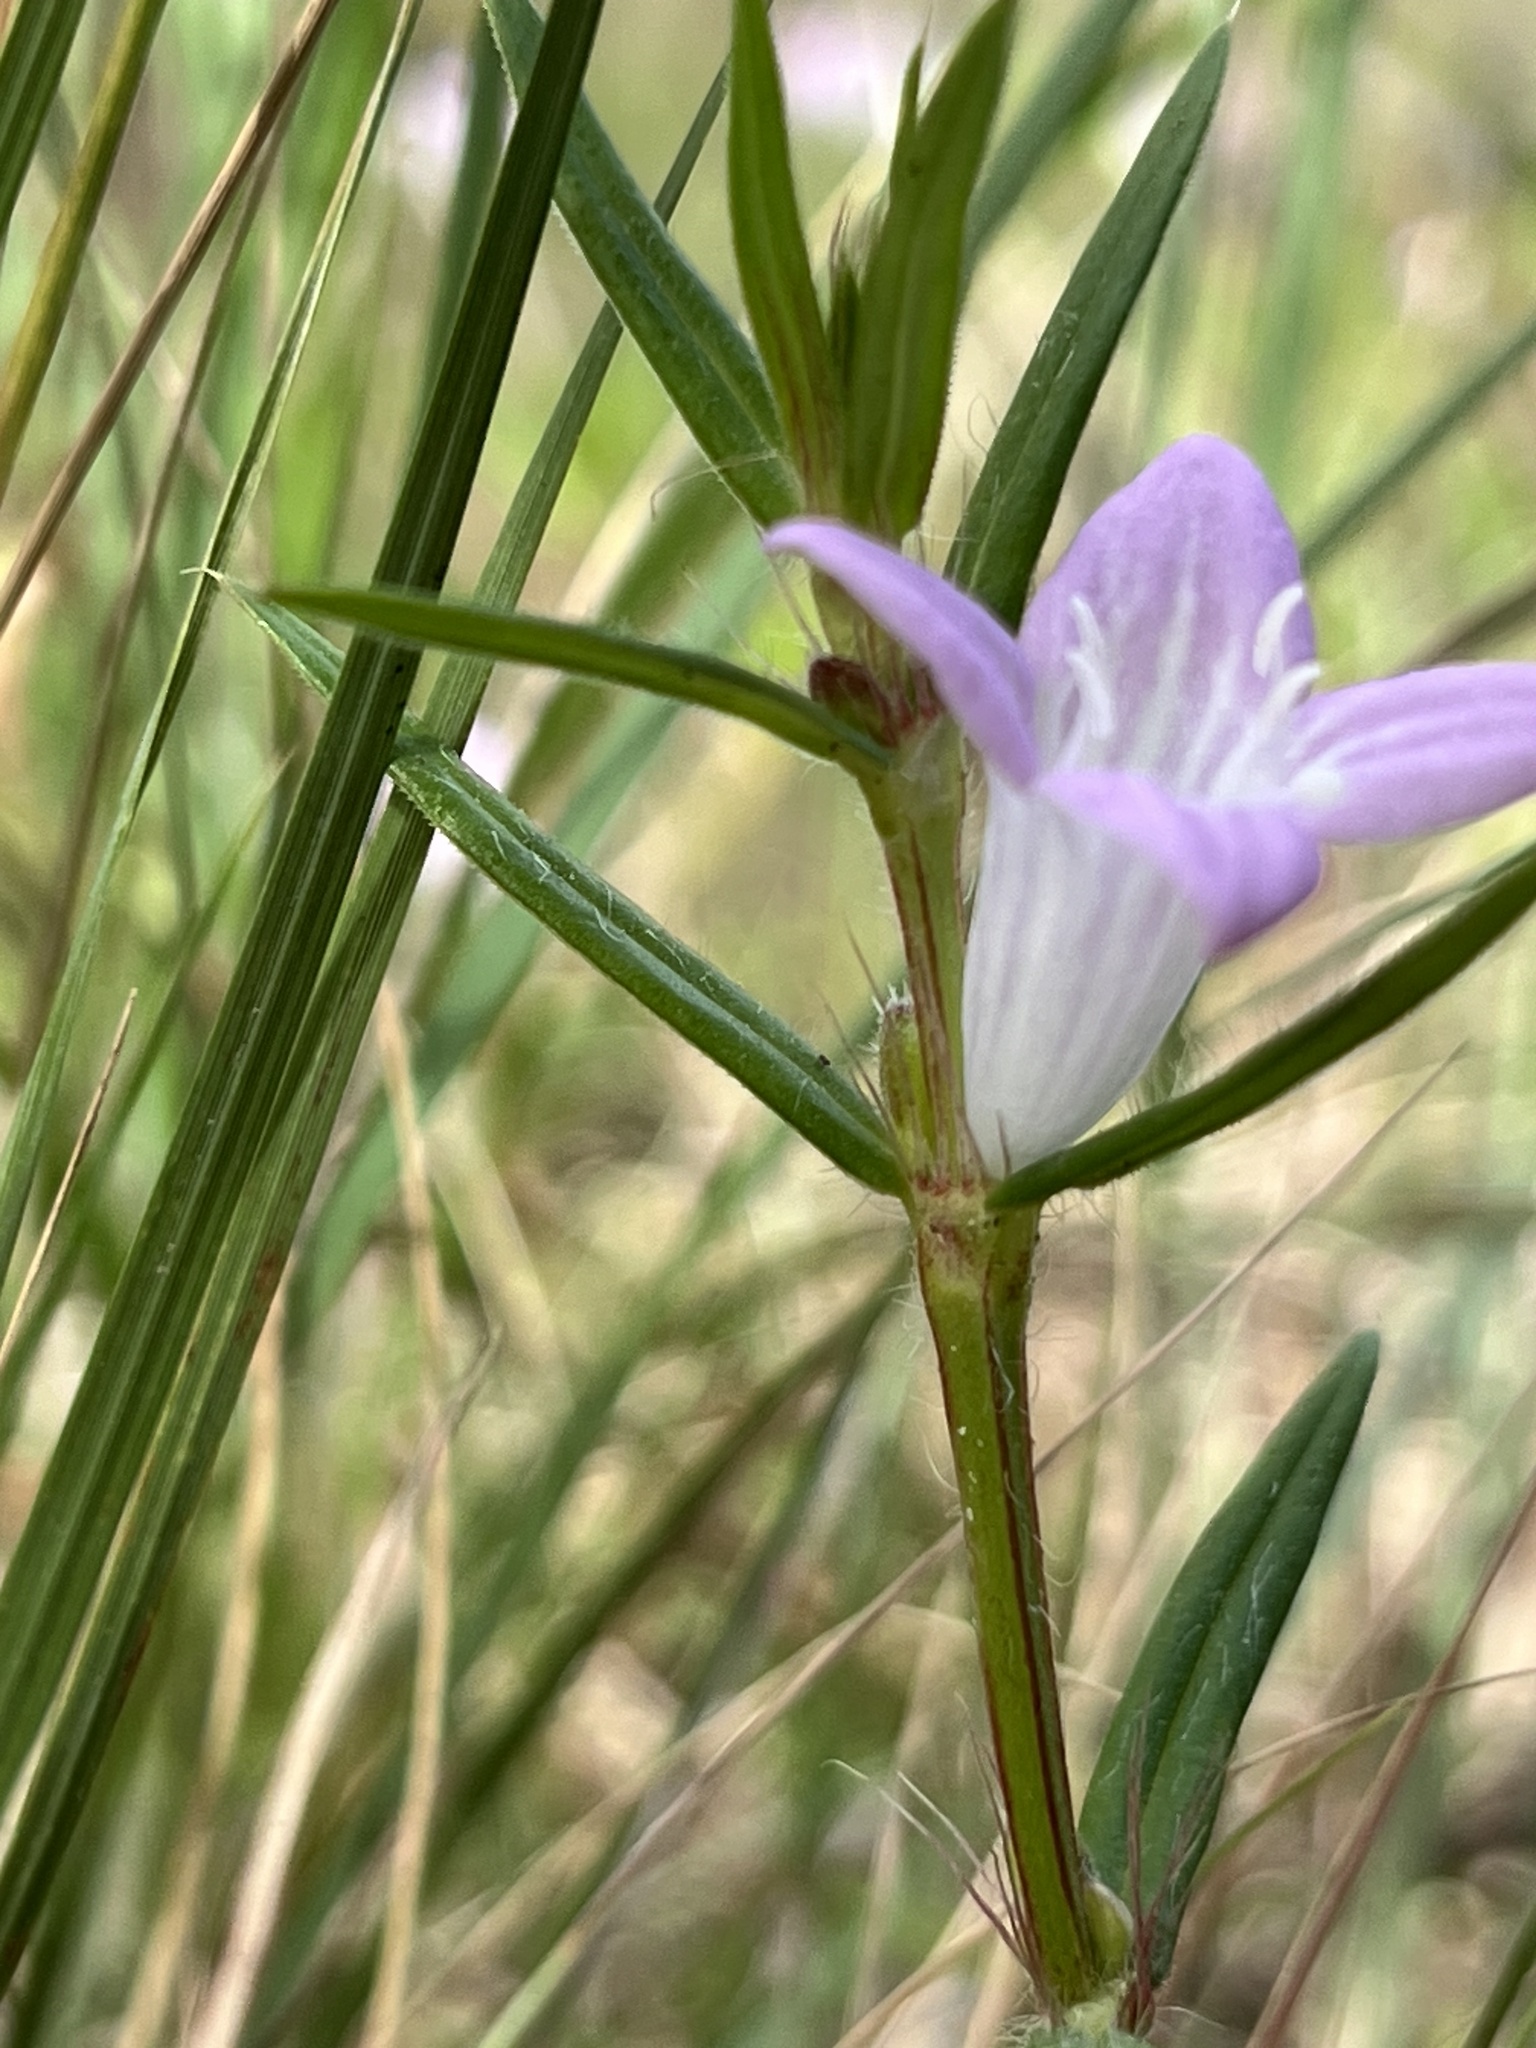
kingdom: Plantae
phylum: Tracheophyta
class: Magnoliopsida
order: Gentianales
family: Rubiaceae
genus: Hexasepalum
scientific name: Hexasepalum apiculatum
